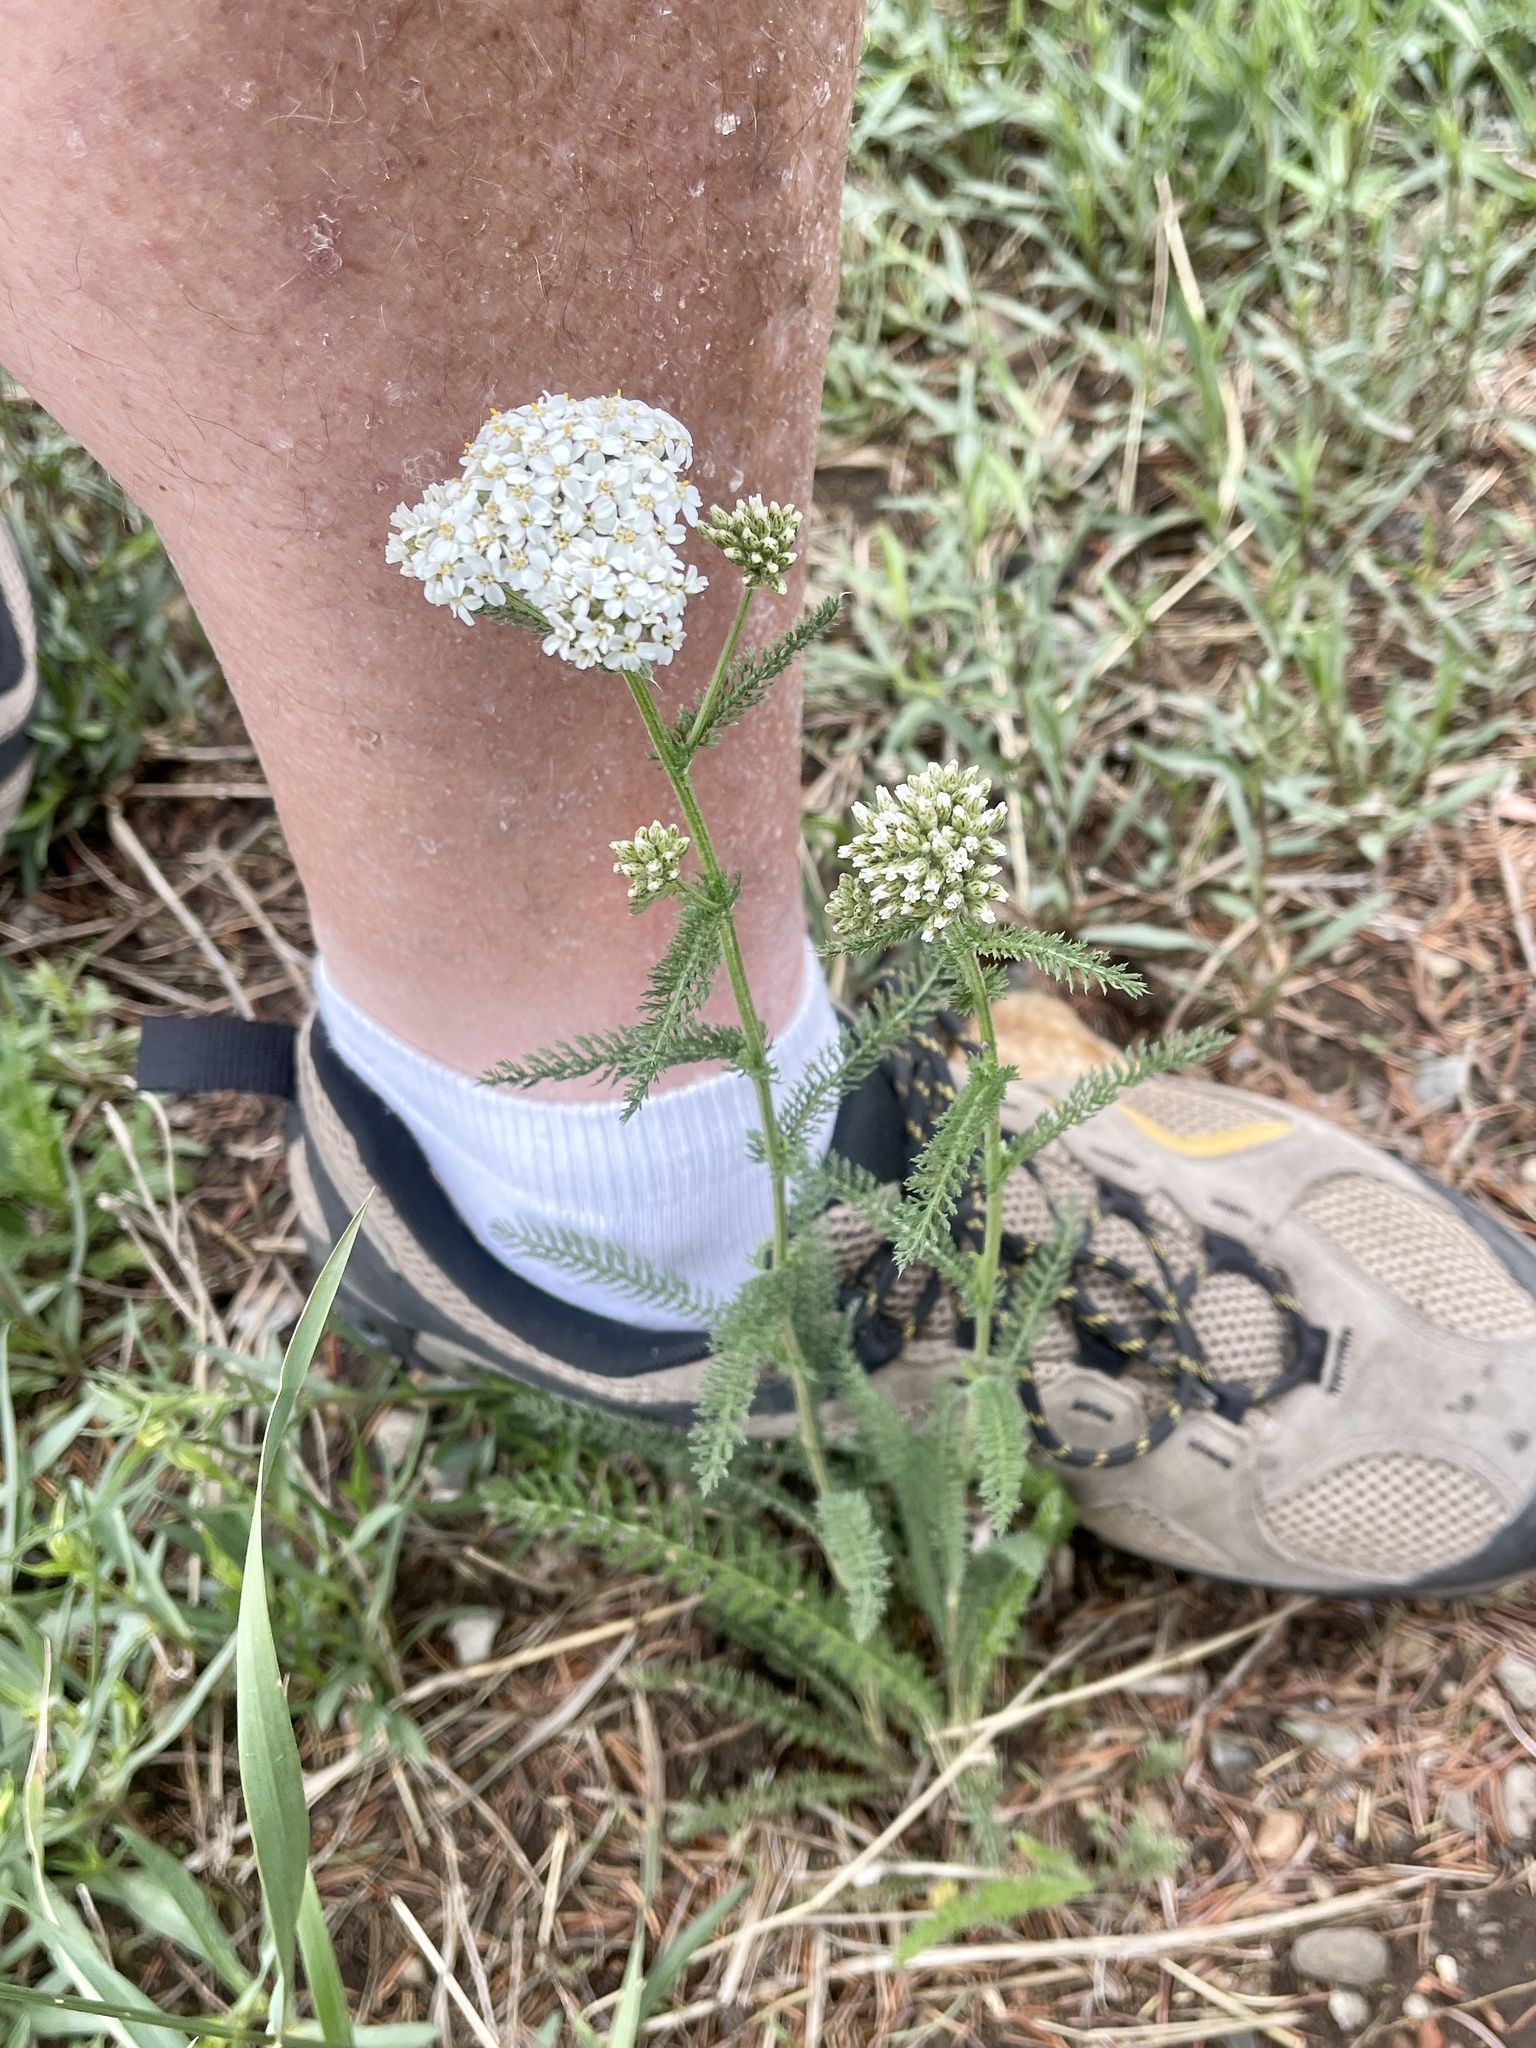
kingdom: Plantae
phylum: Tracheophyta
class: Magnoliopsida
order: Asterales
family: Asteraceae
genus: Achillea
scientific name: Achillea millefolium
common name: Yarrow
